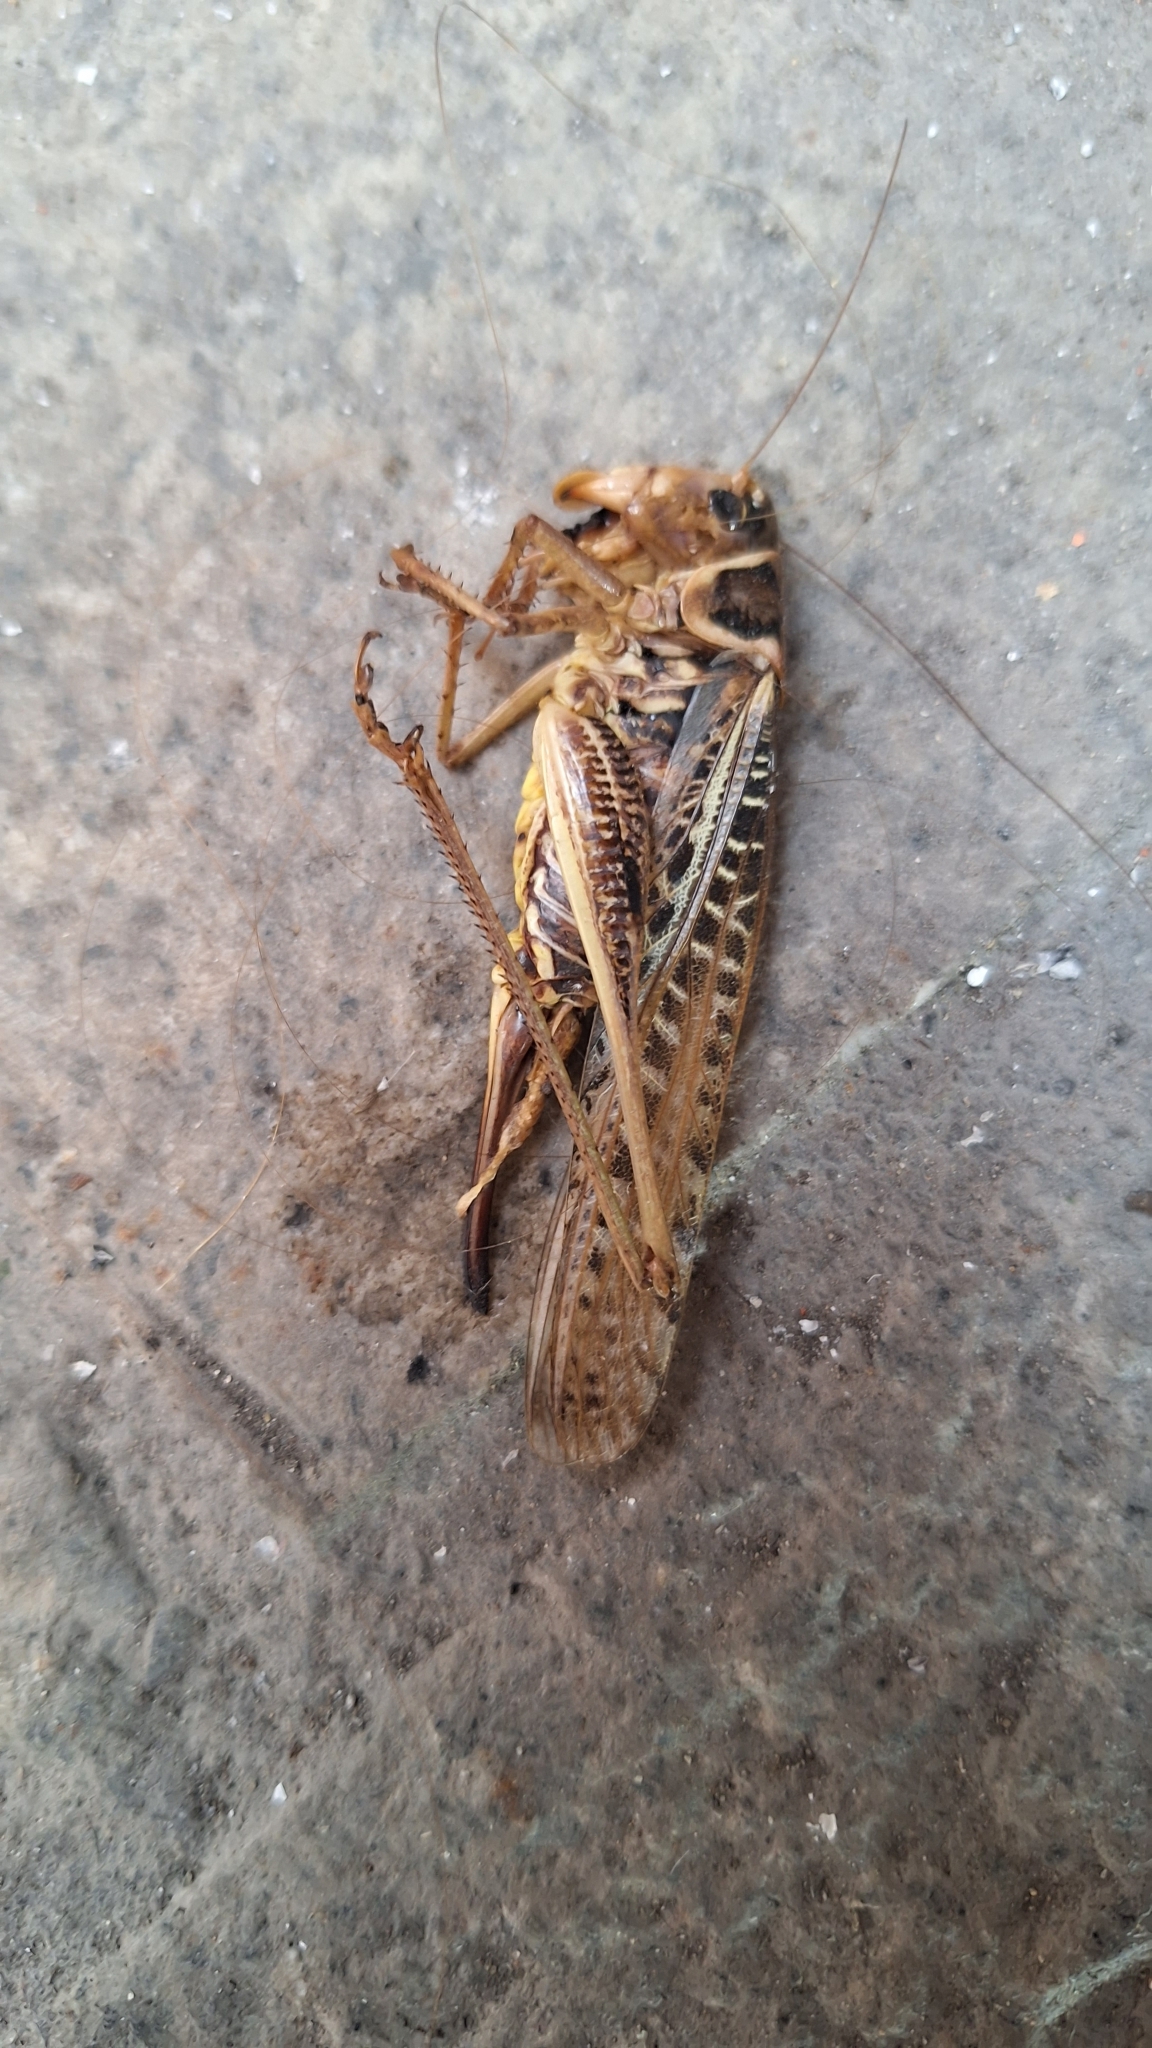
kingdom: Animalia
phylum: Arthropoda
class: Insecta
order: Orthoptera
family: Tettigoniidae
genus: Decticus
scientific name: Decticus albifrons
